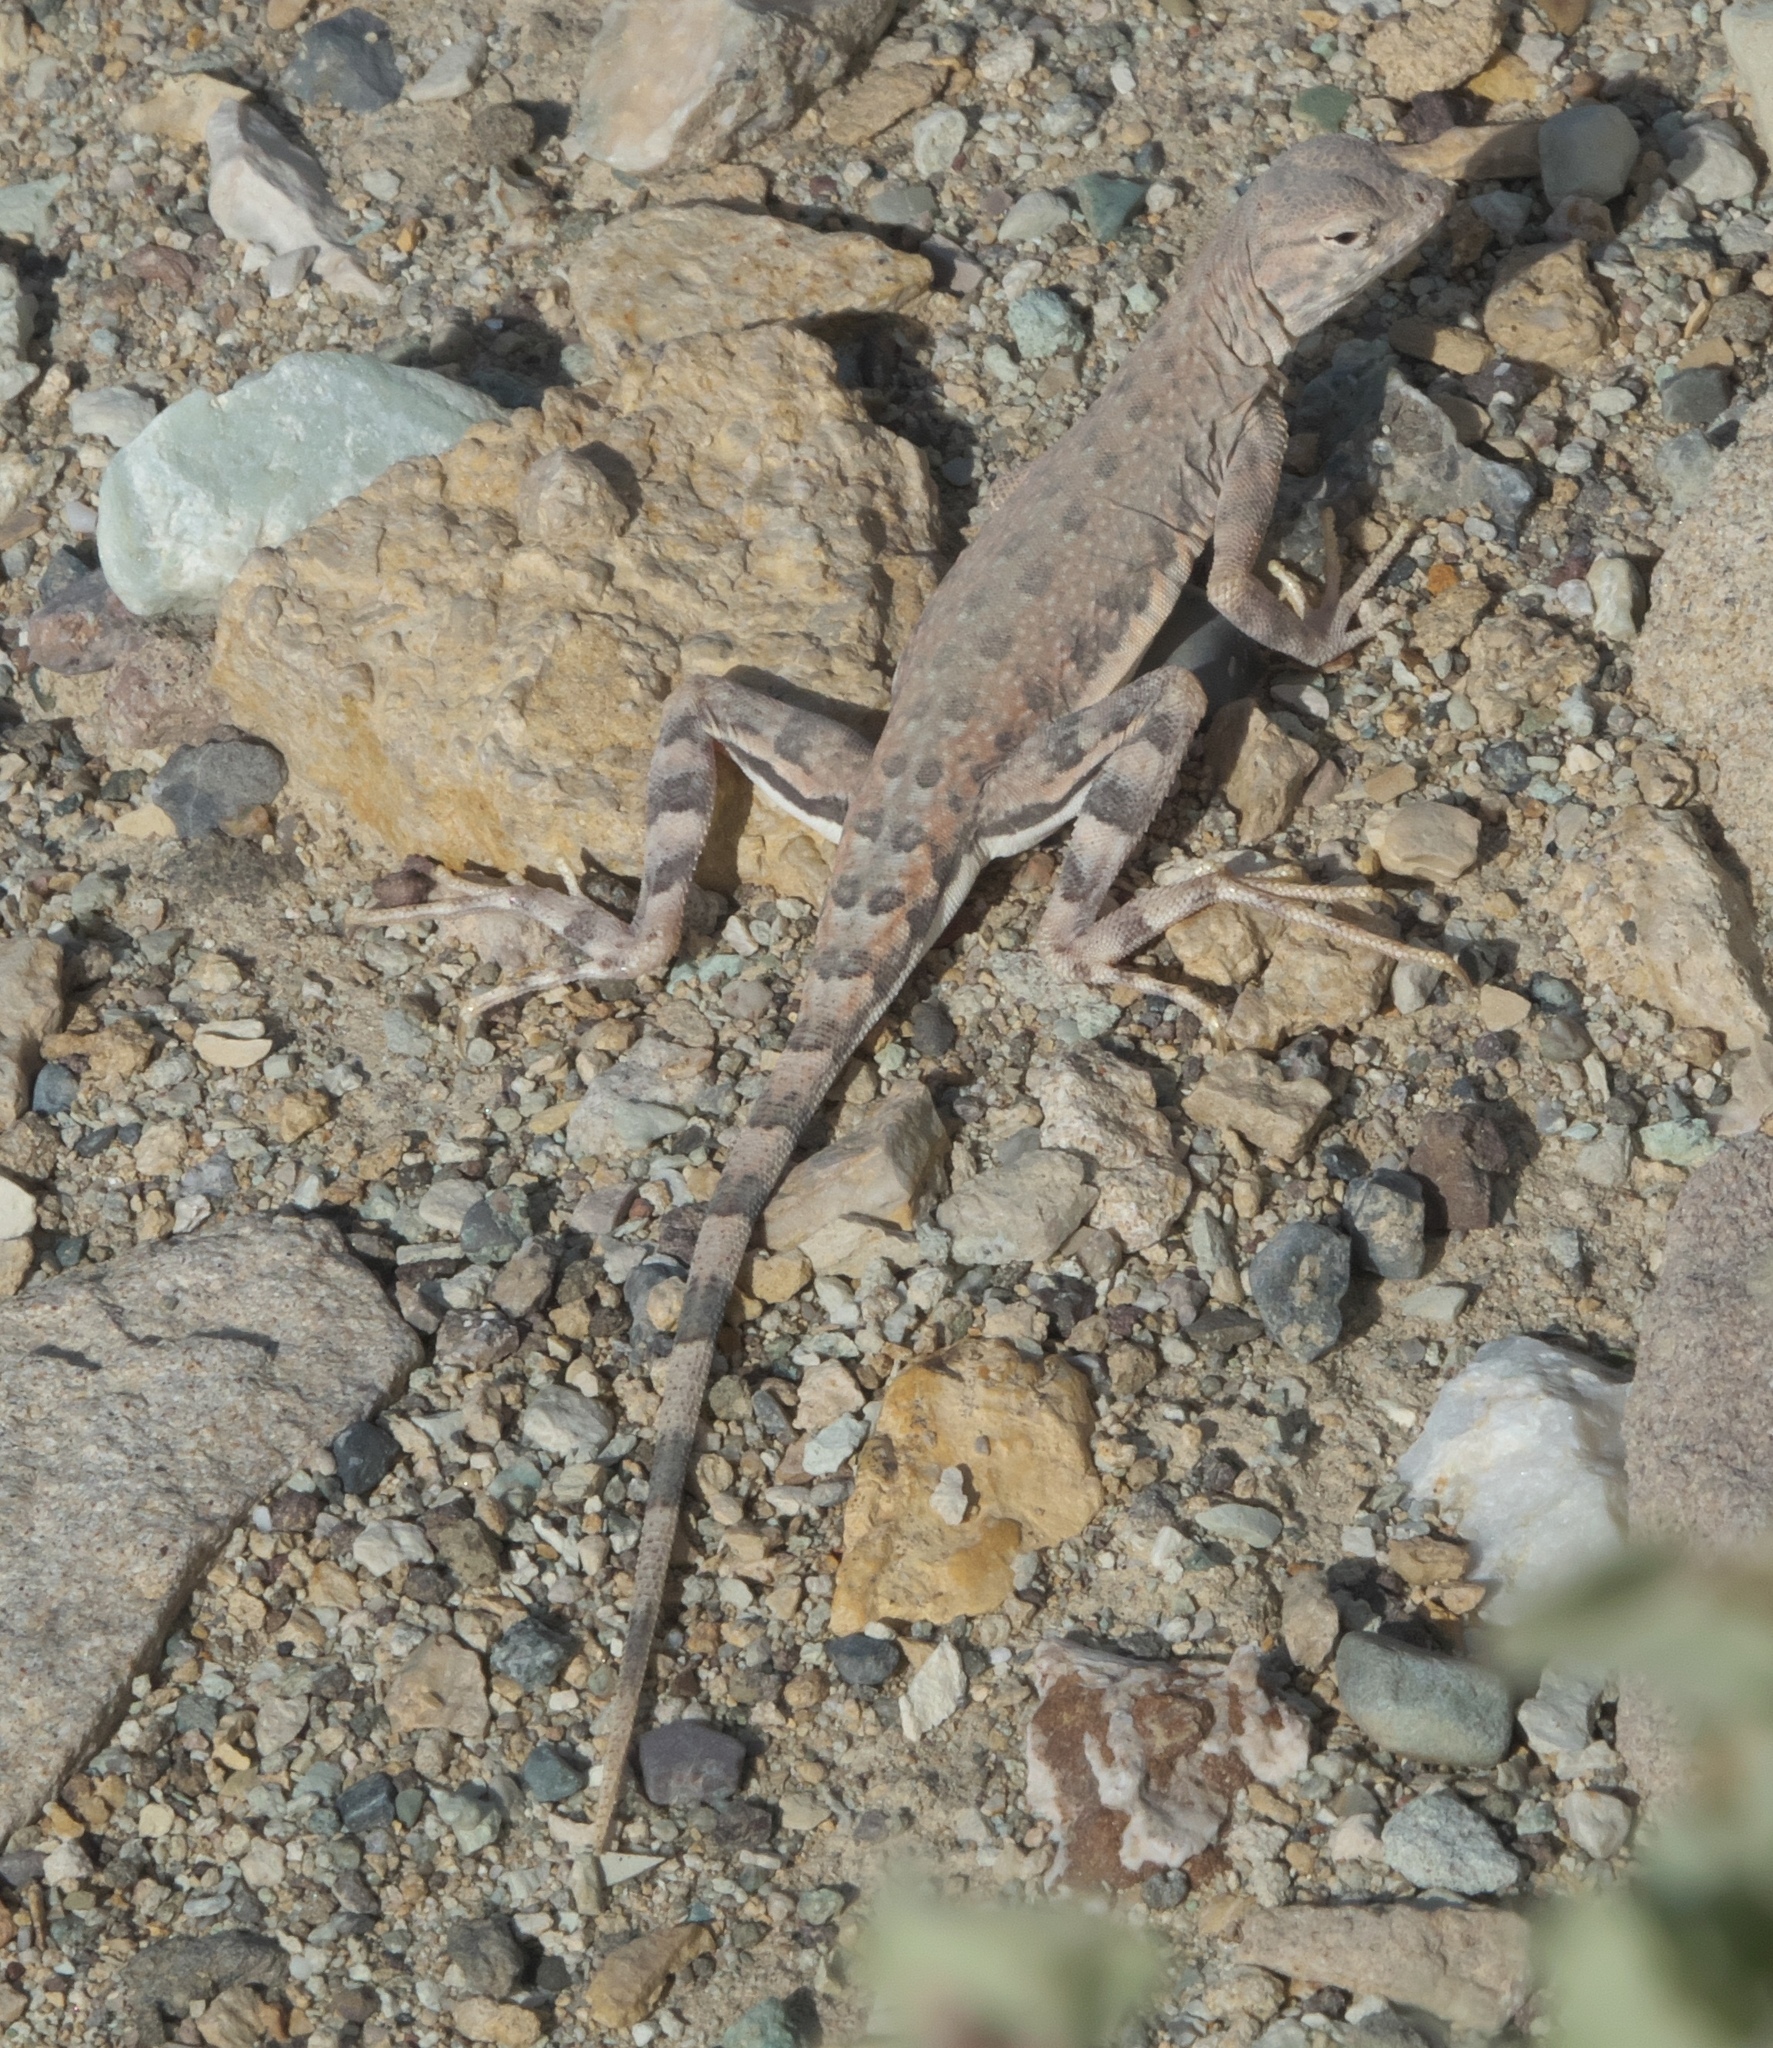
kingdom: Animalia
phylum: Chordata
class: Squamata
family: Phrynosomatidae
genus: Callisaurus
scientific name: Callisaurus draconoides
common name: Zebra-tailed lizard
